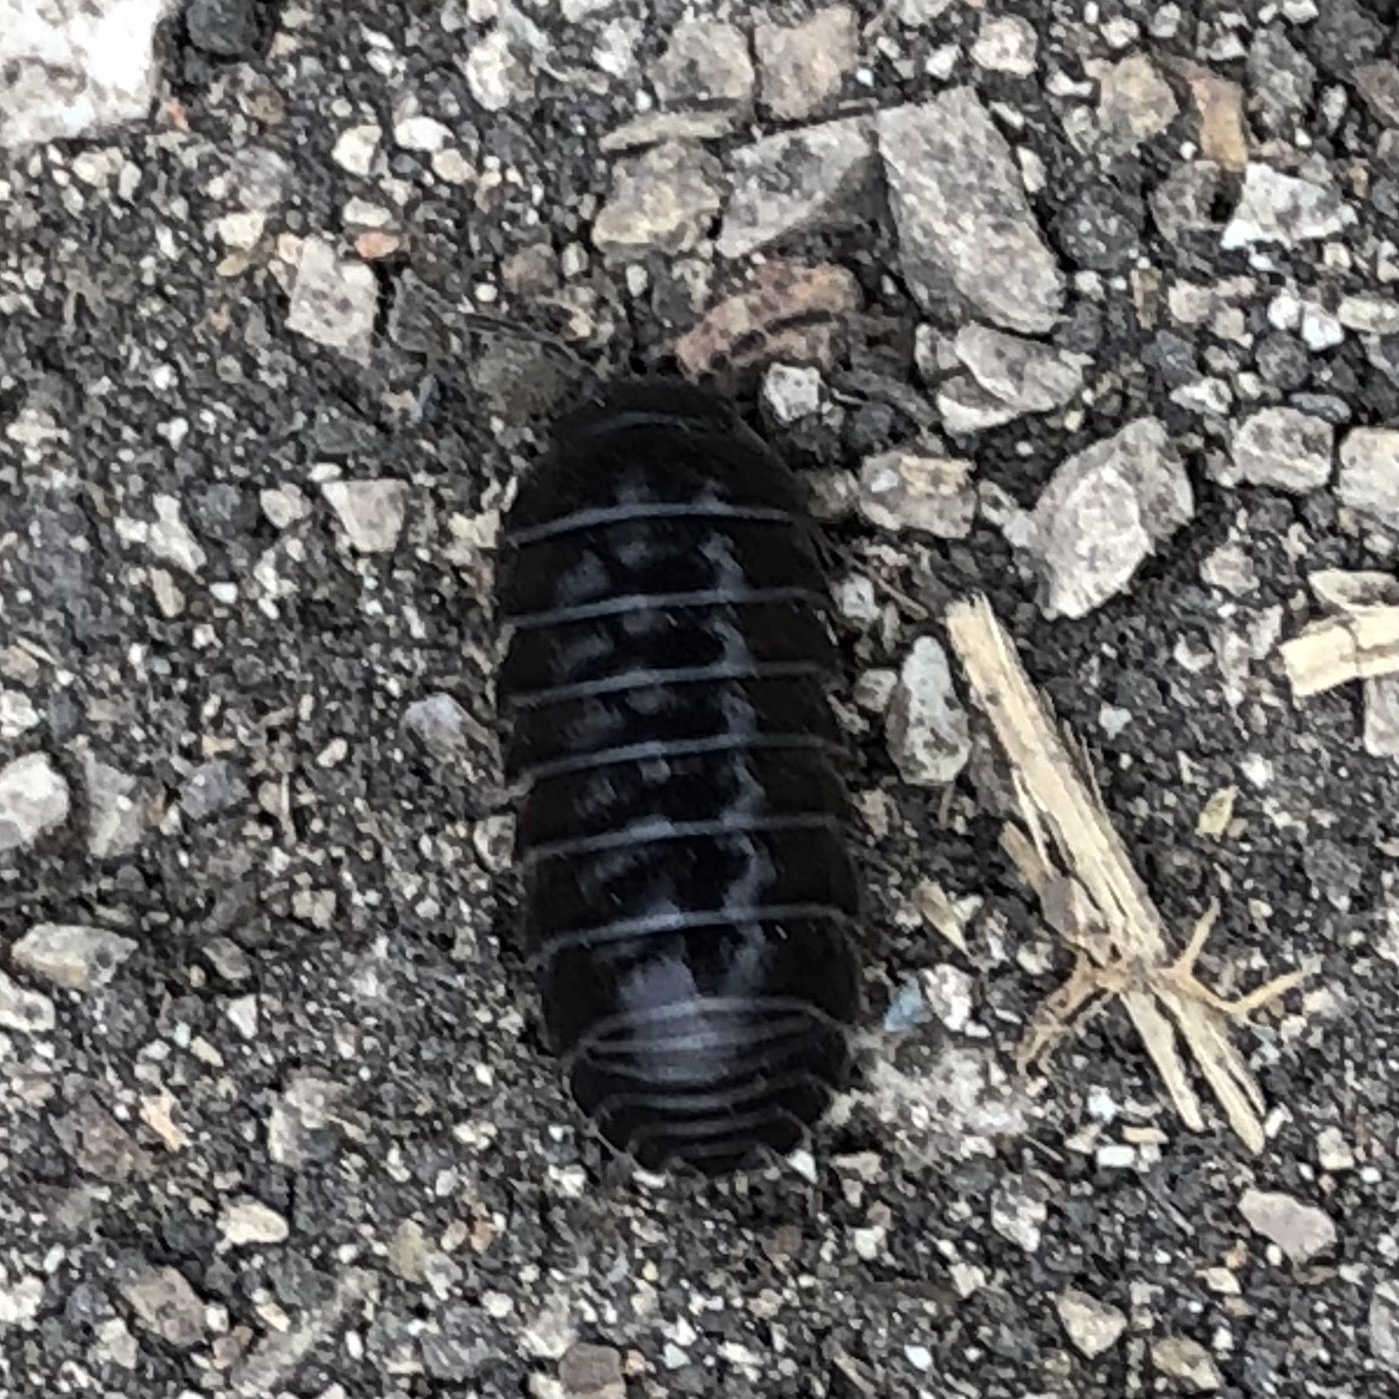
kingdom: Animalia
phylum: Arthropoda
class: Malacostraca
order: Isopoda
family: Armadillidiidae
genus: Armadillidium
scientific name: Armadillidium vulgare
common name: Common pill woodlouse
